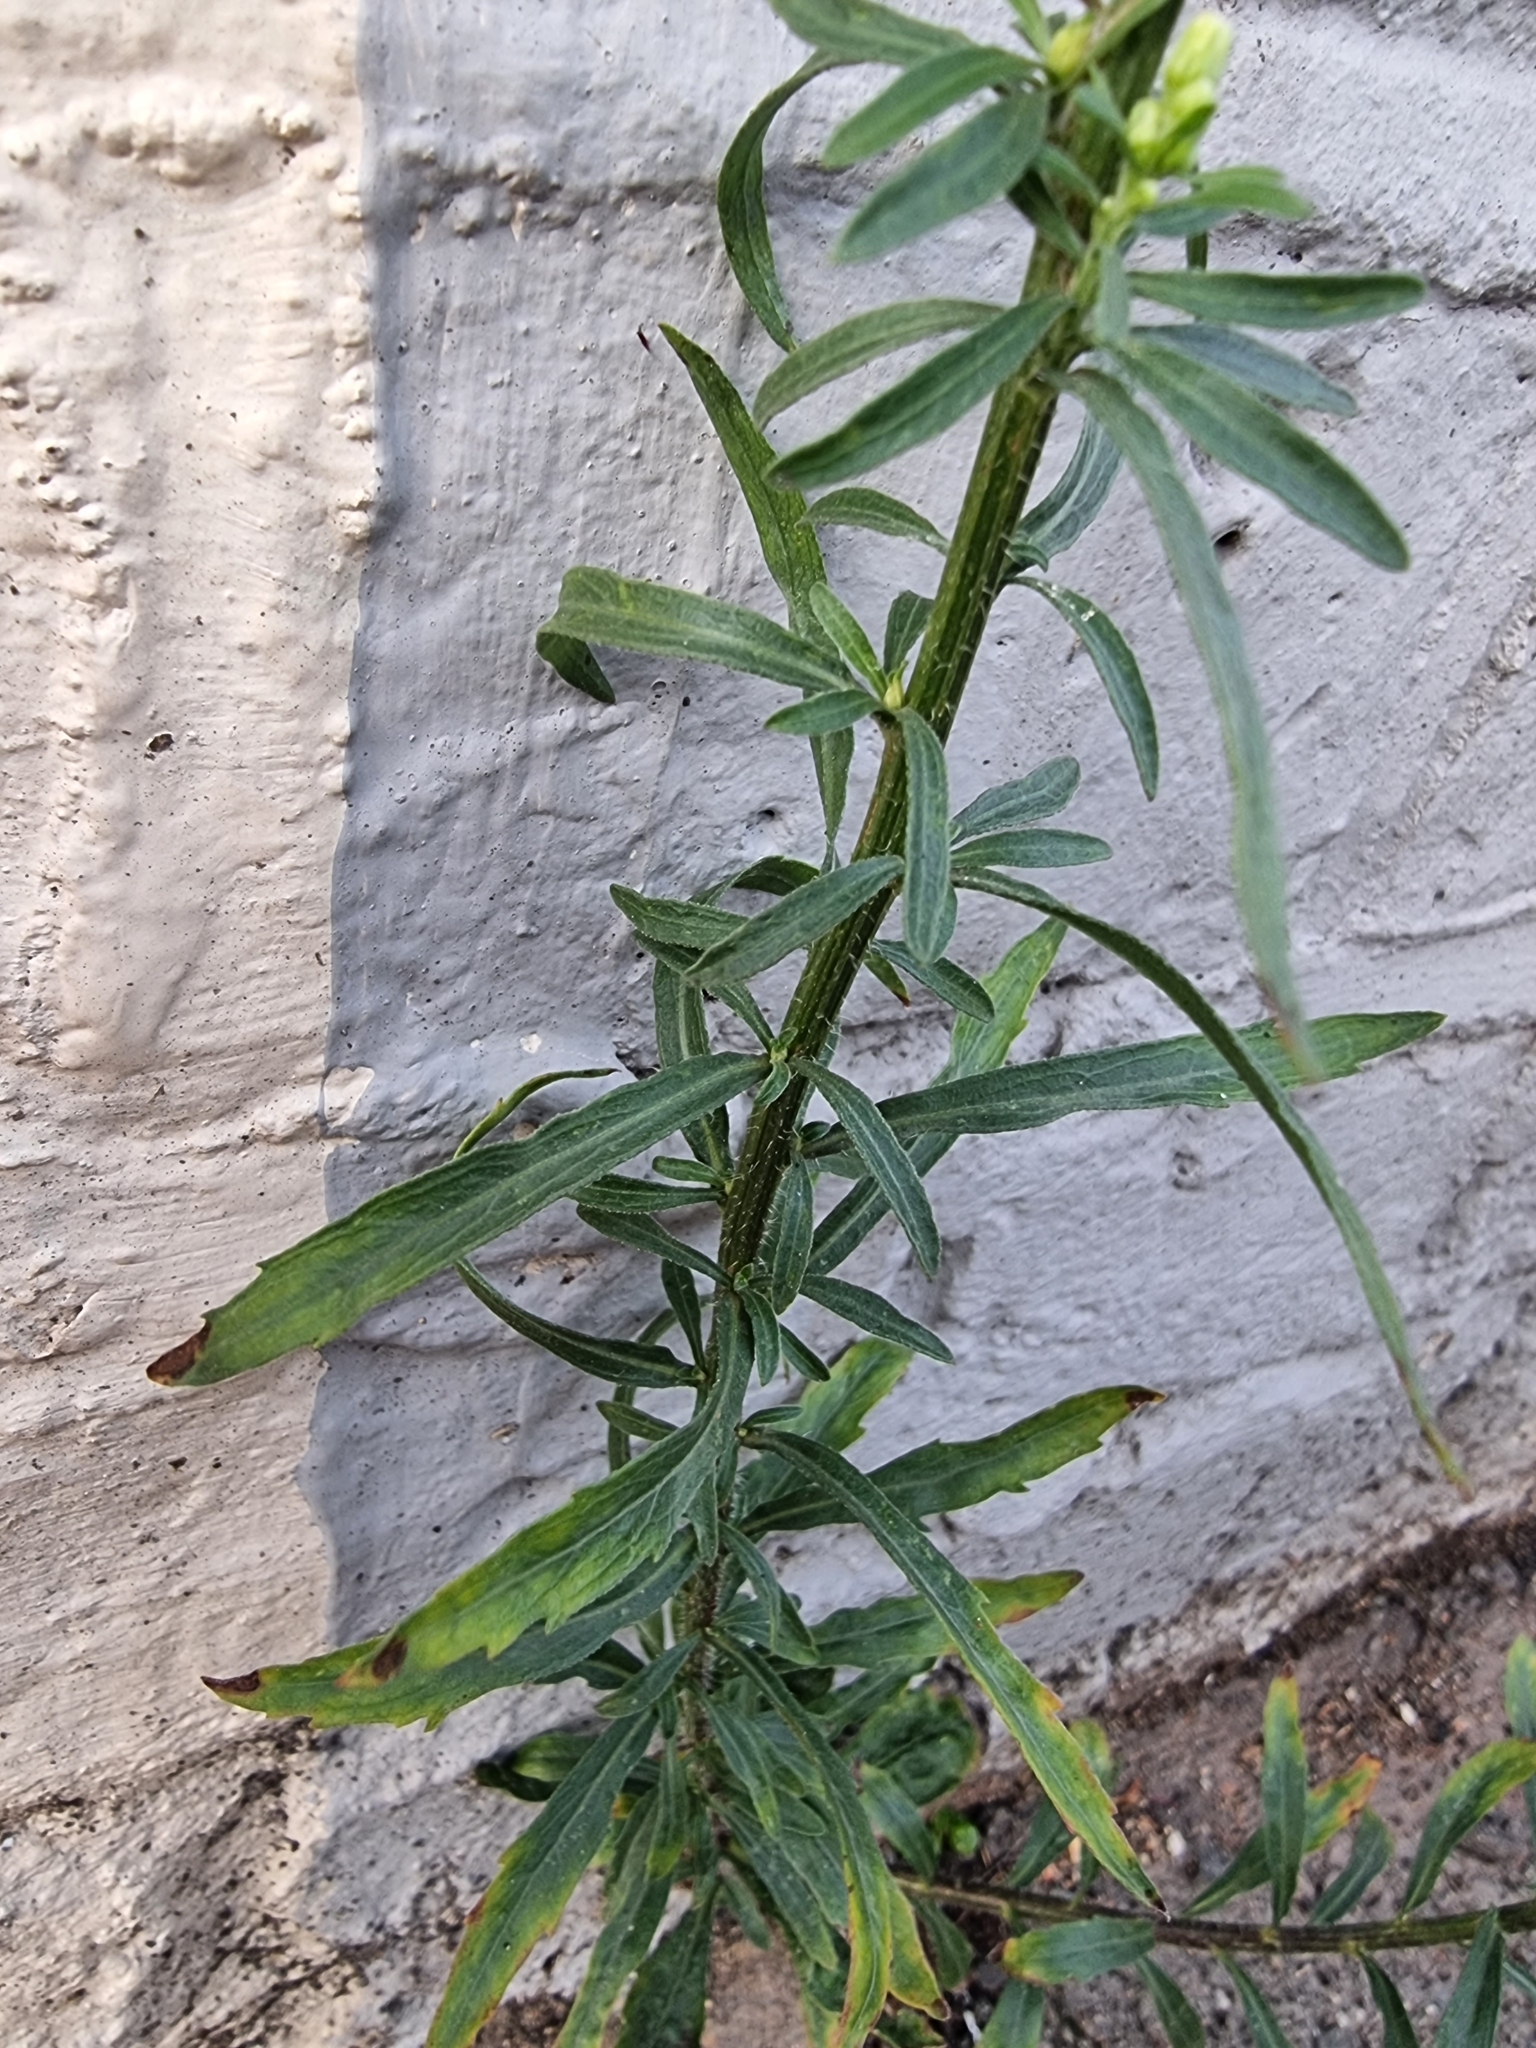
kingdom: Plantae
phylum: Tracheophyta
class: Magnoliopsida
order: Asterales
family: Asteraceae
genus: Erigeron
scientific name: Erigeron floribundus
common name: Bilbao fleabane
